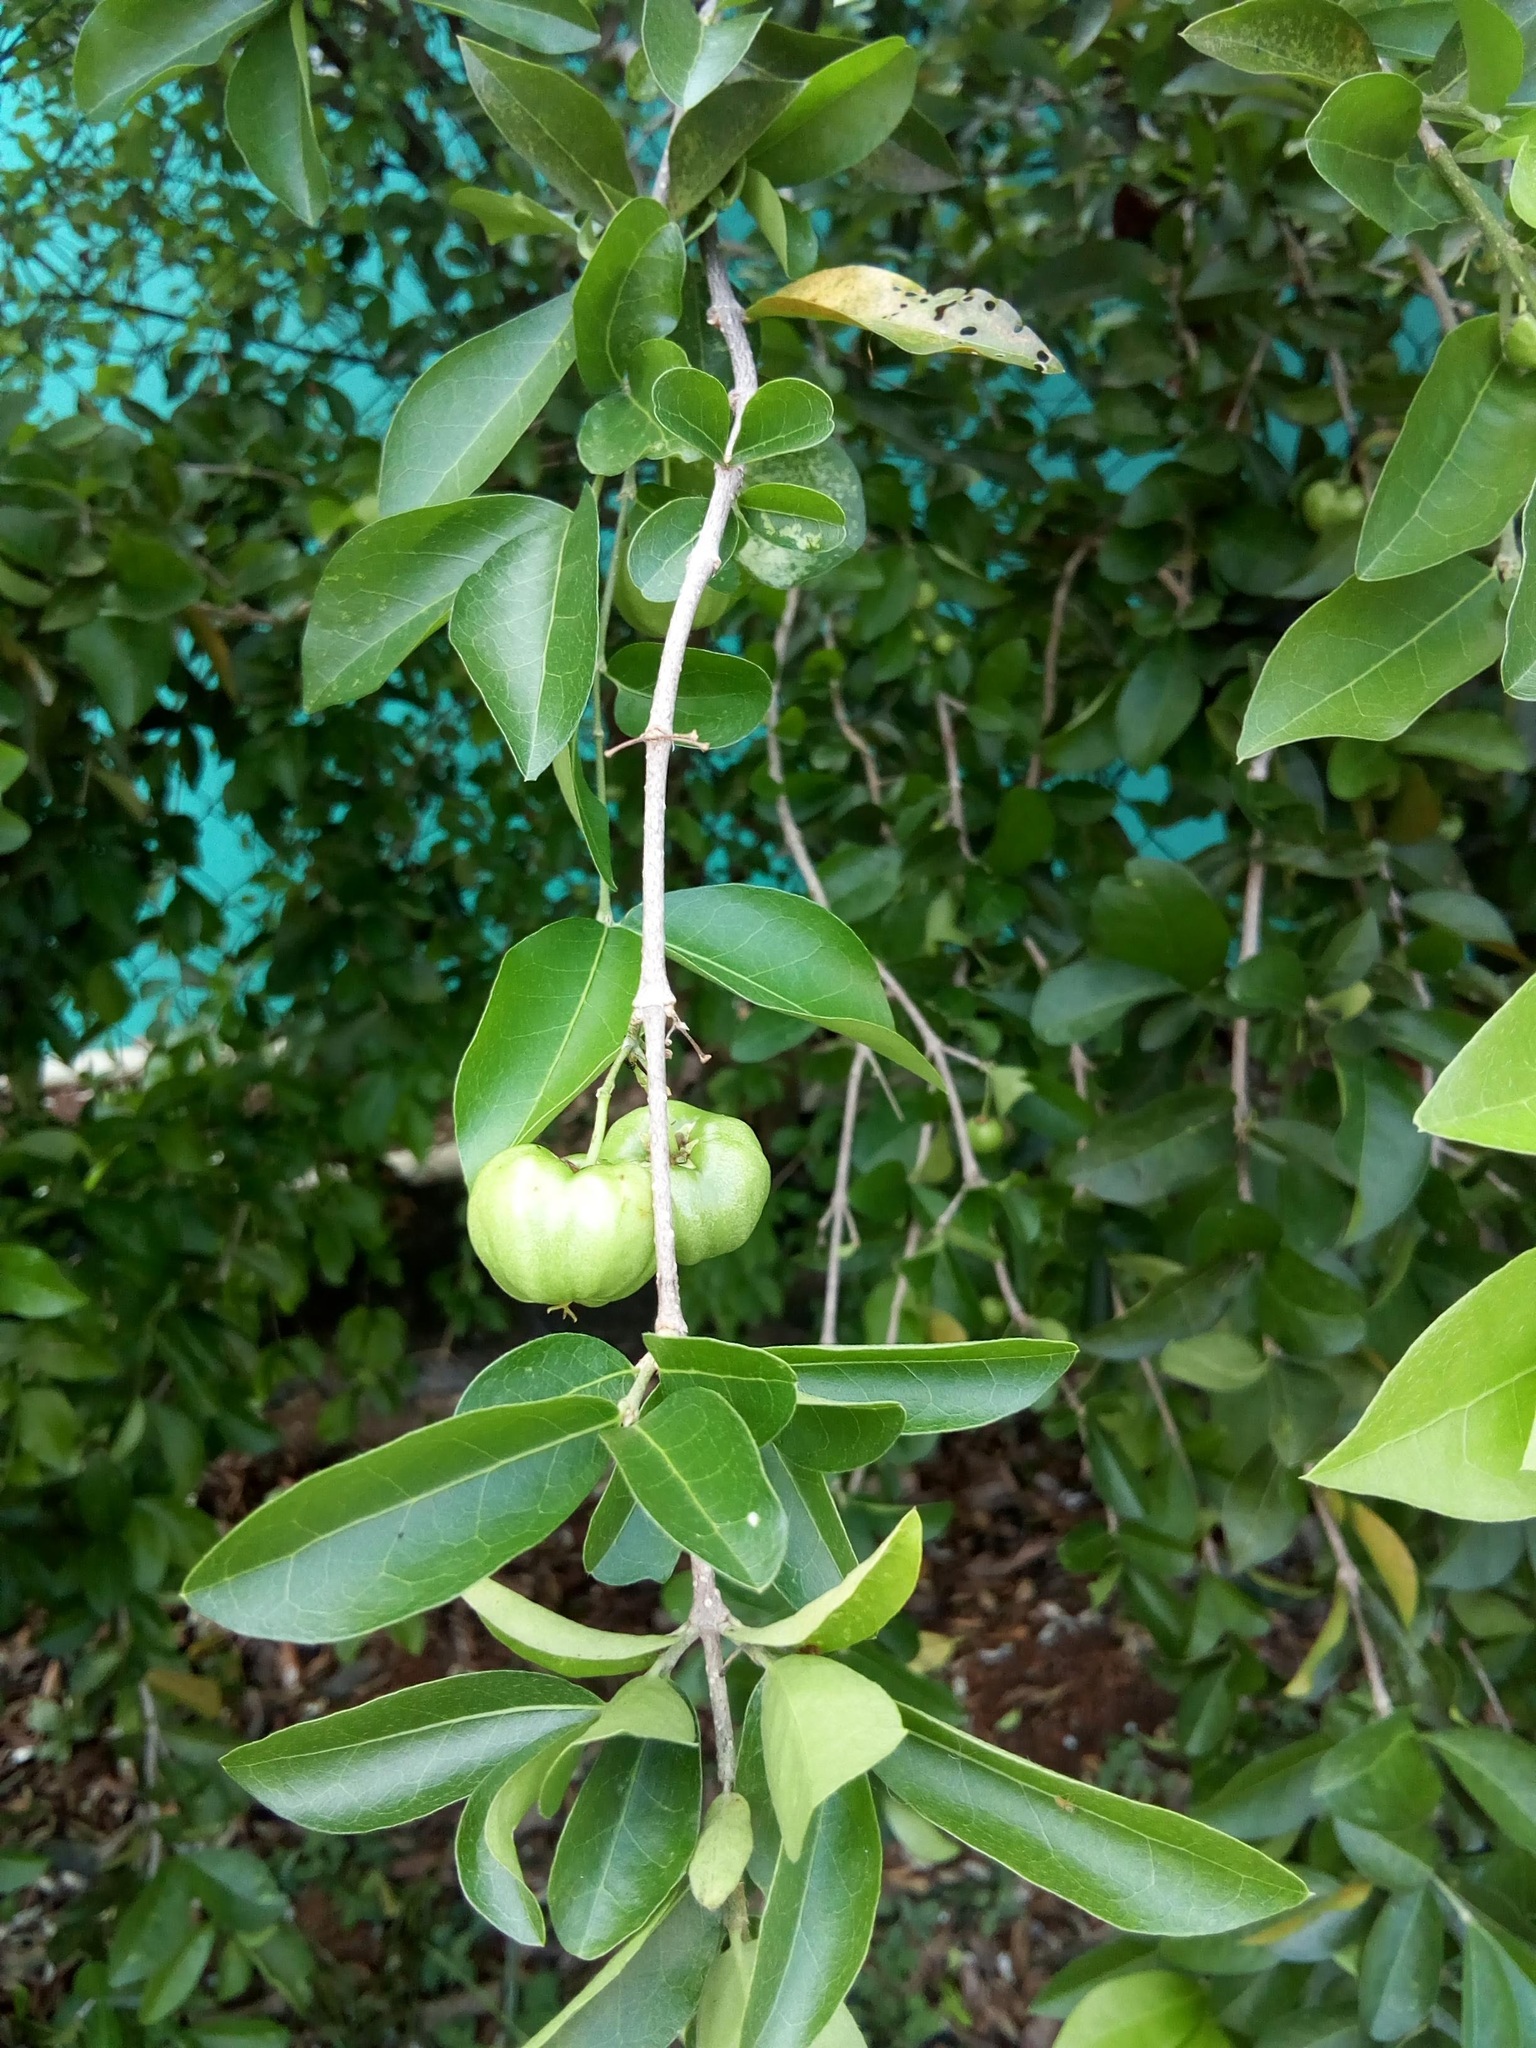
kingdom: Plantae
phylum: Tracheophyta
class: Magnoliopsida
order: Malpighiales
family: Malpighiaceae
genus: Malpighia
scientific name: Malpighia glabra
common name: Barbados cherry
